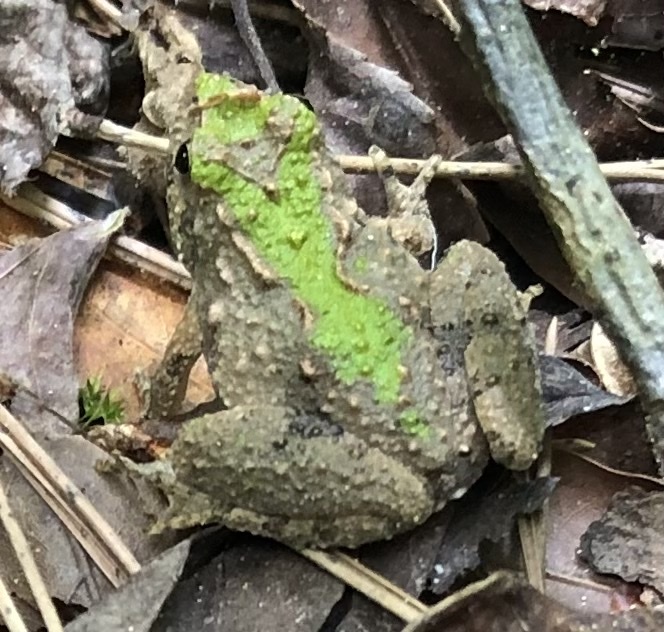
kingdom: Animalia
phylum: Chordata
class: Amphibia
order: Anura
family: Hylidae
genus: Acris
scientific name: Acris crepitans
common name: Northern cricket frog
